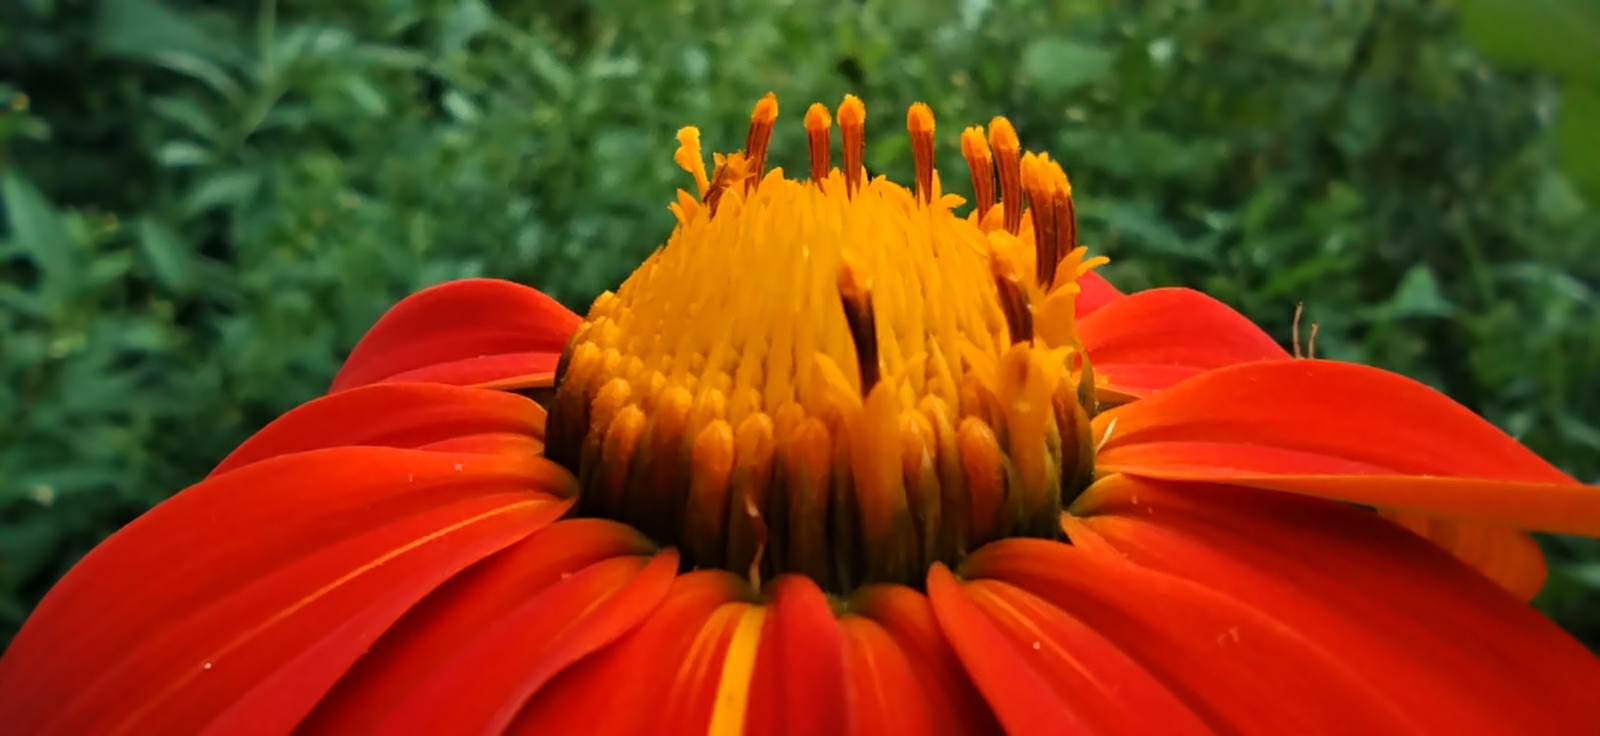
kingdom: Plantae
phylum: Tracheophyta
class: Magnoliopsida
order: Asterales
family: Asteraceae
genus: Tithonia
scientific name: Tithonia rotundifolia
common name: Sunflower
